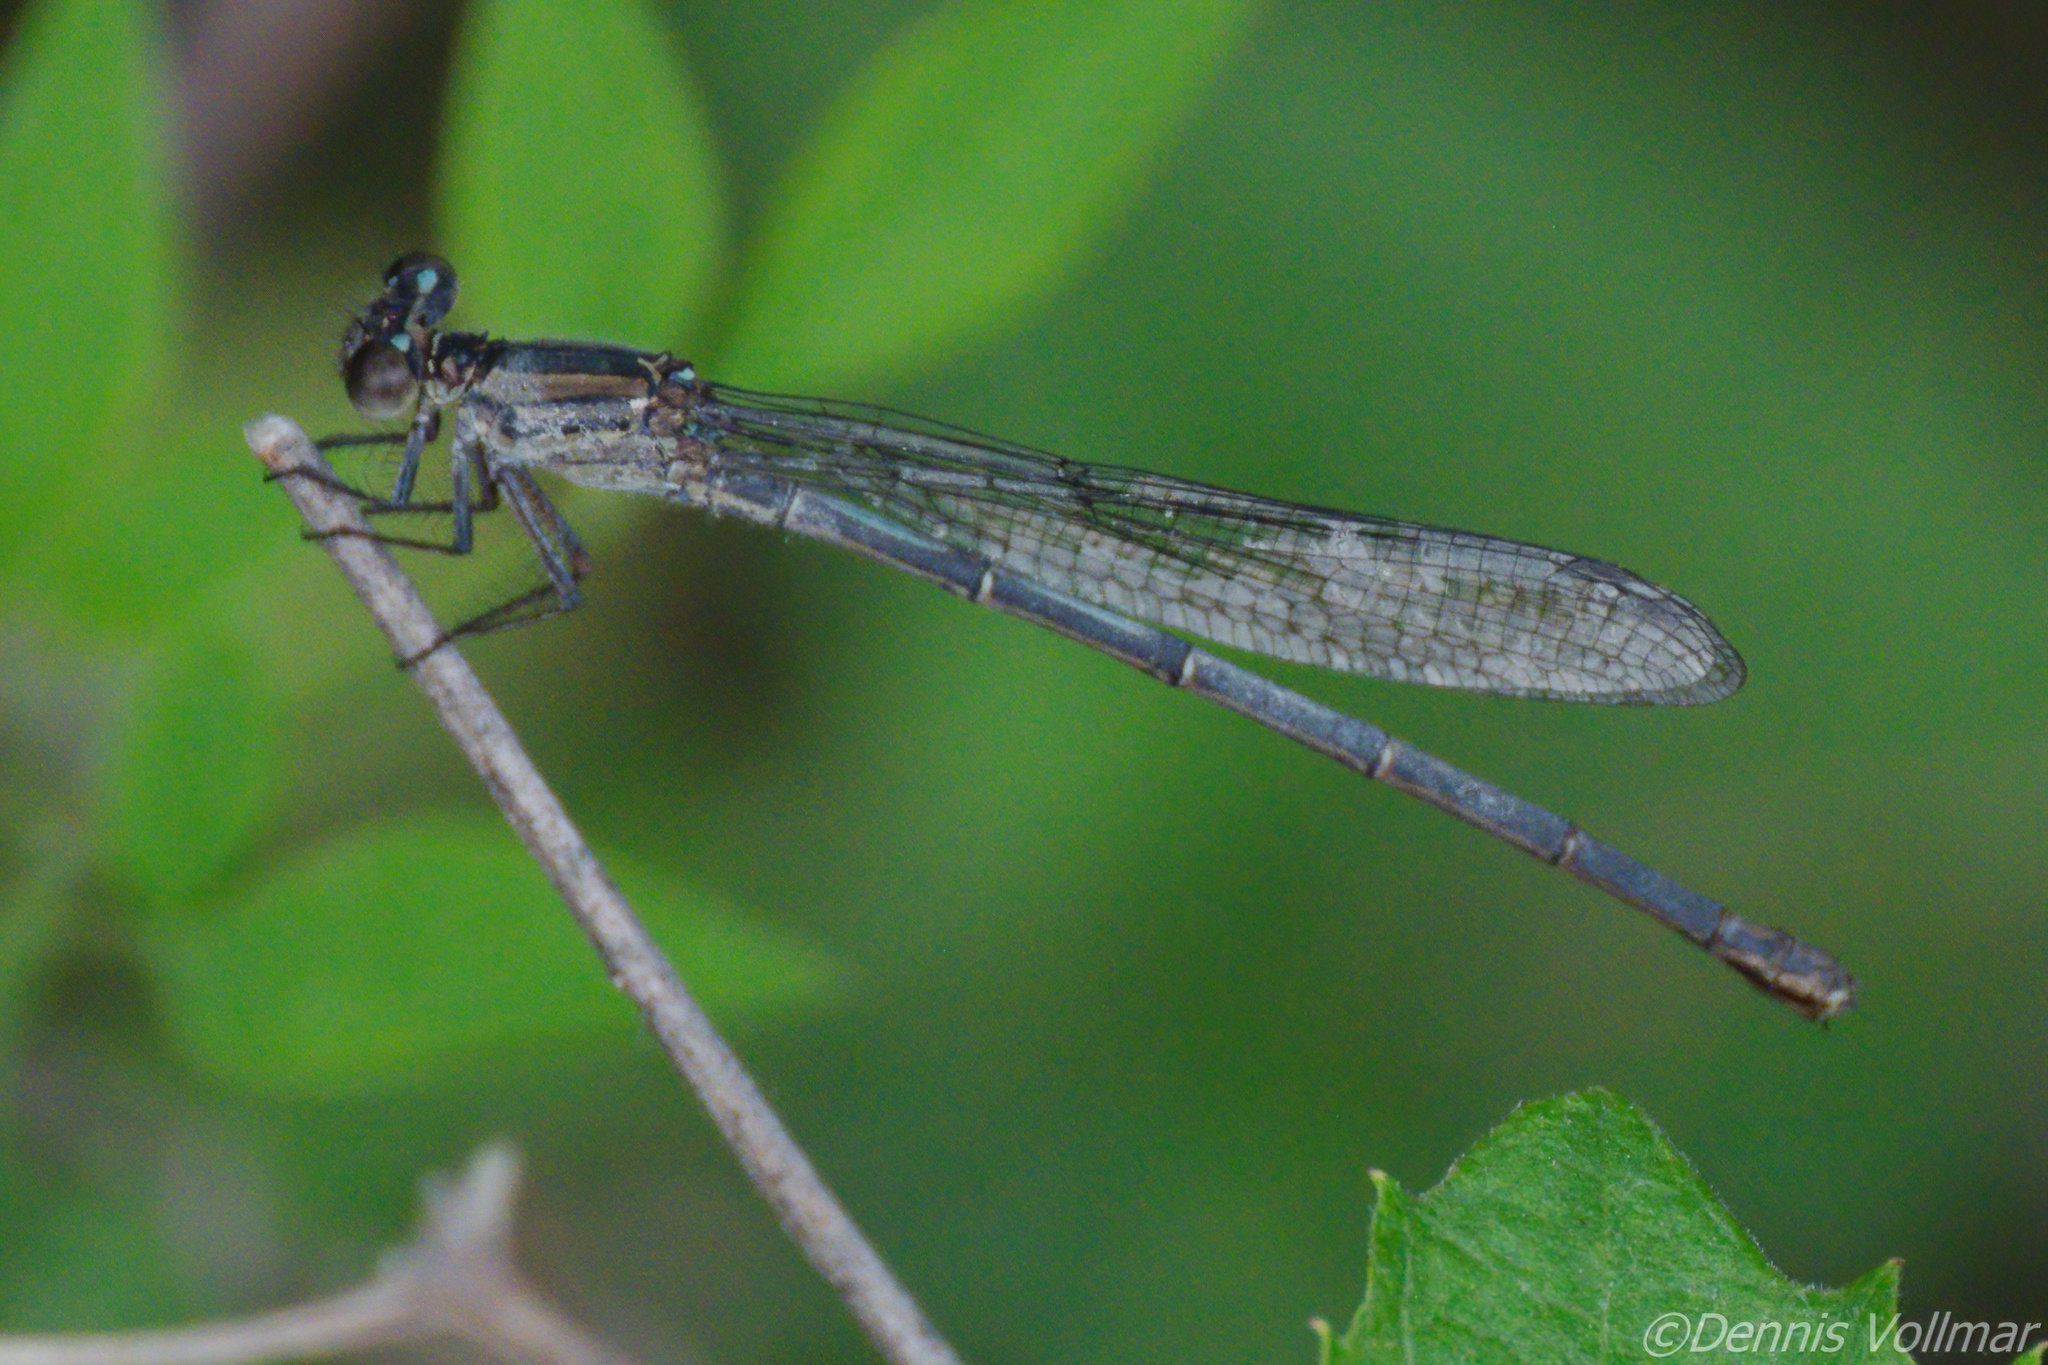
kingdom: Animalia
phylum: Arthropoda
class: Insecta
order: Odonata
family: Coenagrionidae
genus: Argia
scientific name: Argia translata
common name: Dusky dancer
